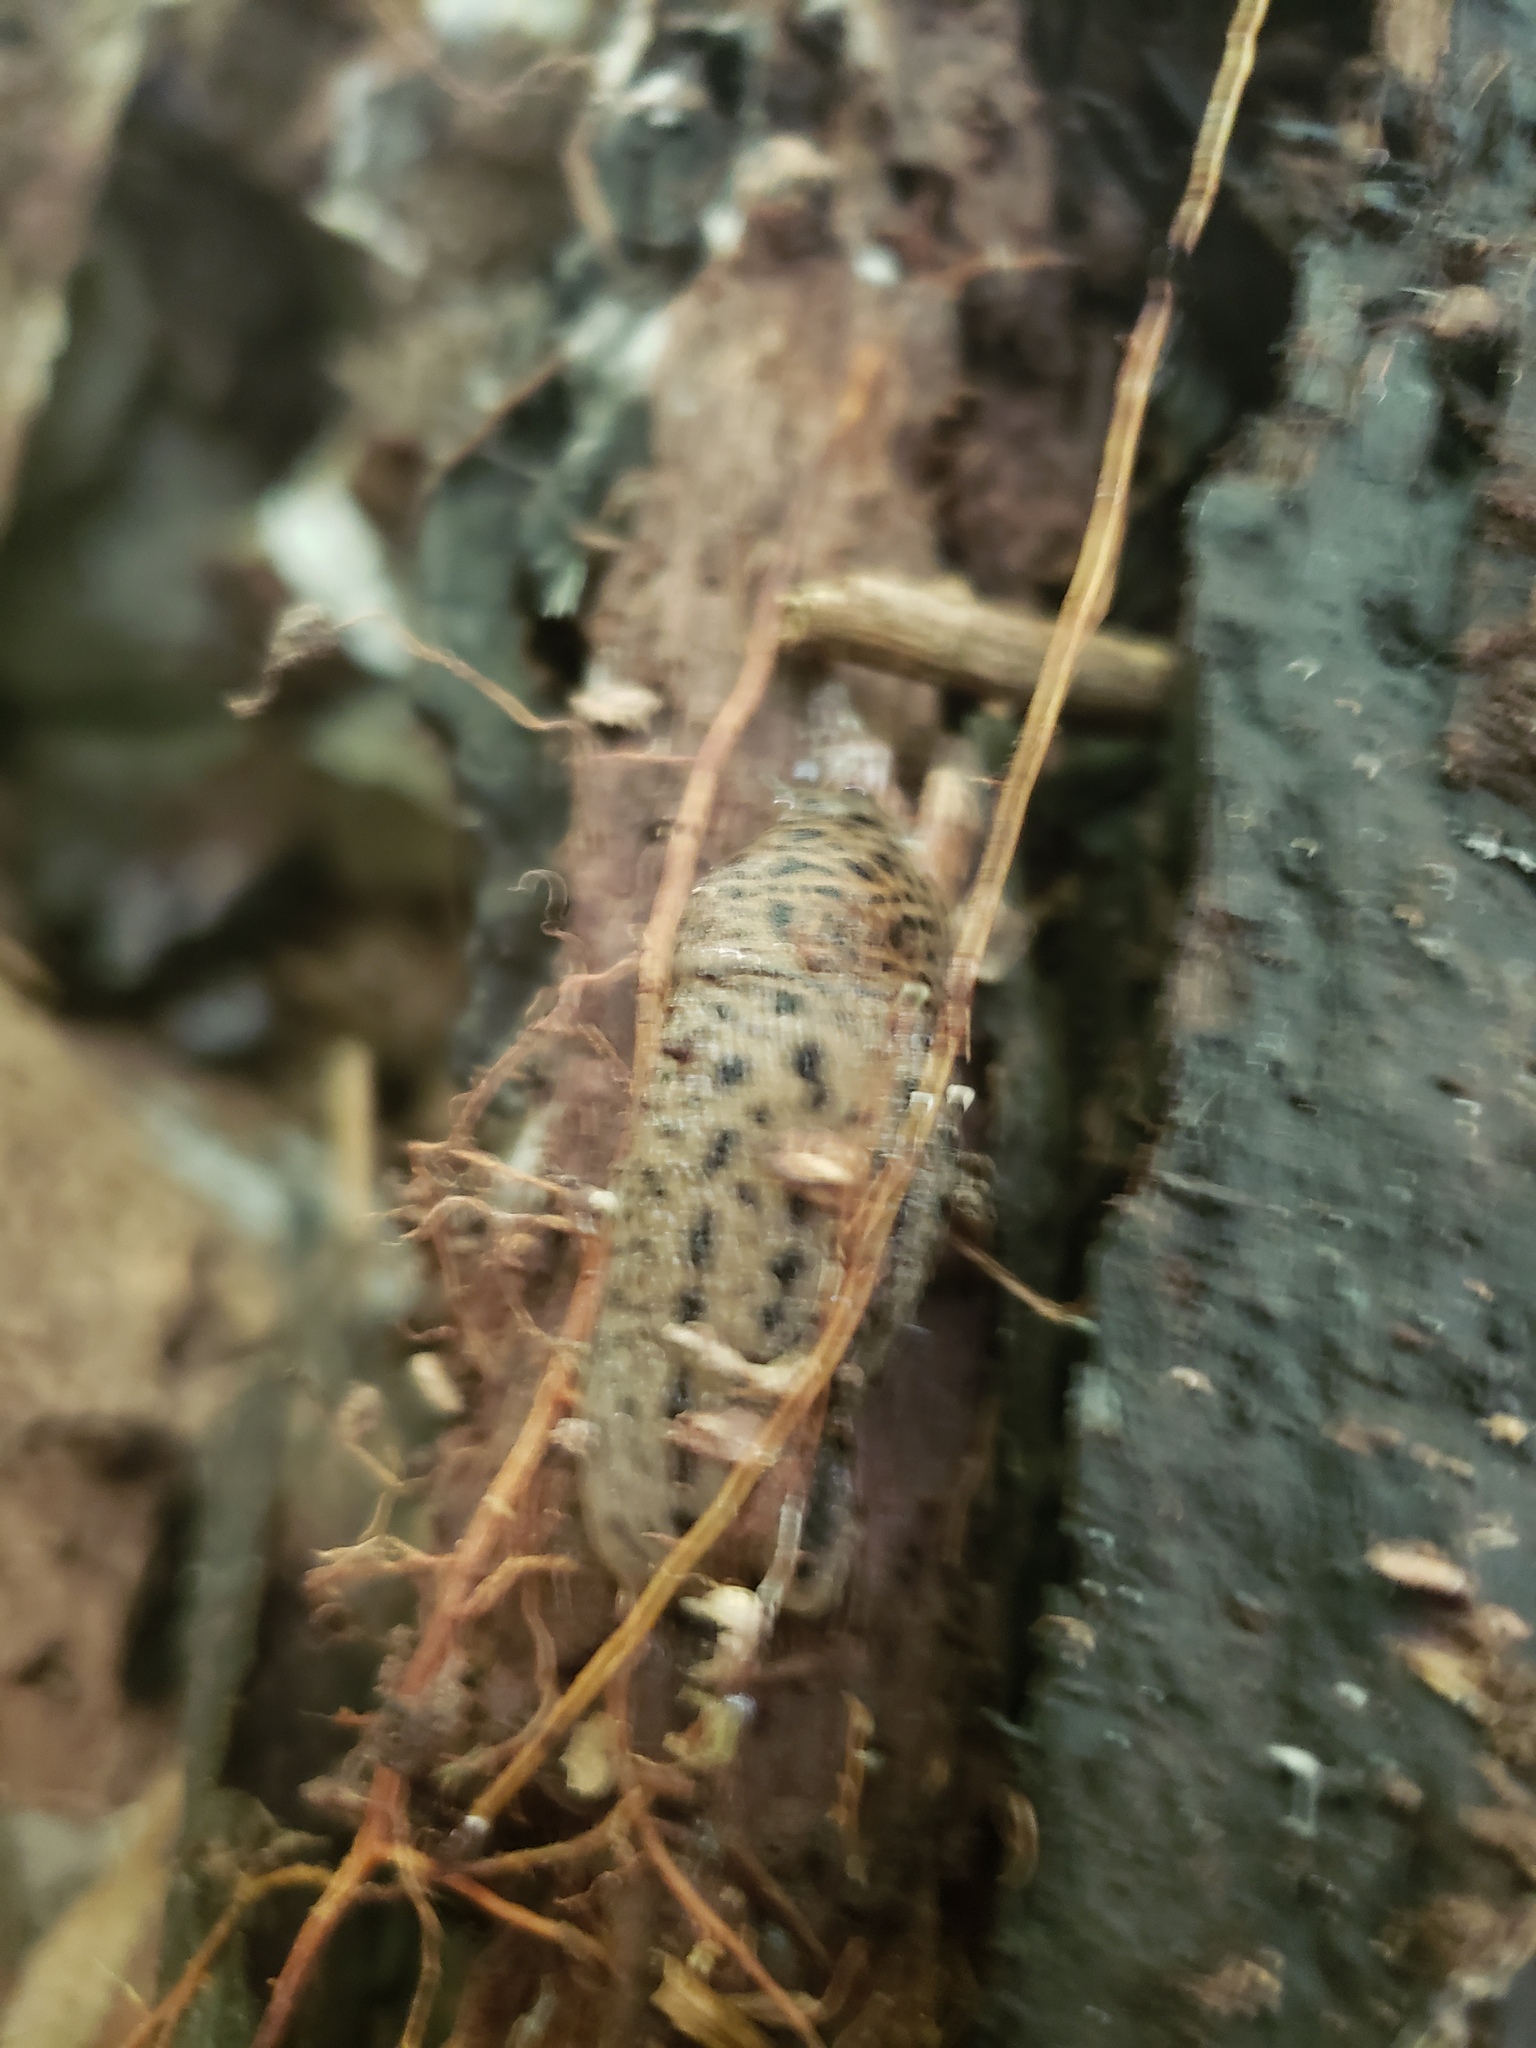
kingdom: Animalia
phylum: Mollusca
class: Gastropoda
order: Stylommatophora
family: Limacidae
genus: Limax
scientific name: Limax maximus
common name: Great grey slug
